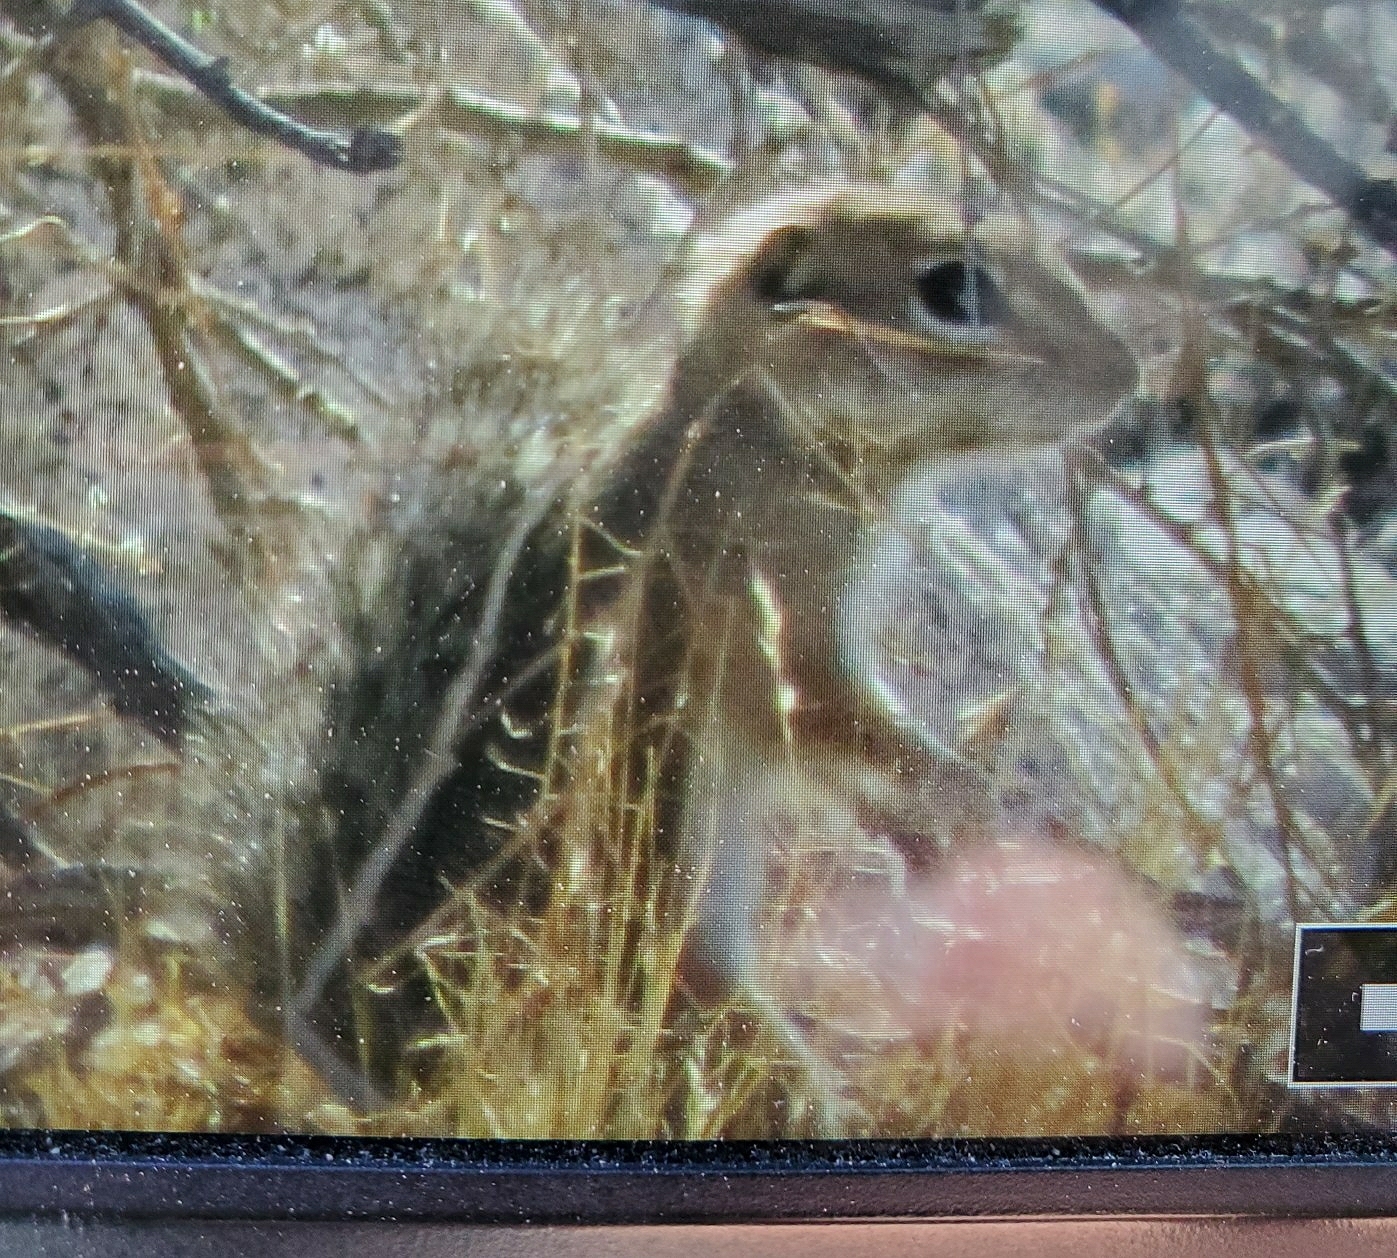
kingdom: Animalia
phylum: Chordata
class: Mammalia
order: Rodentia
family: Sciuridae
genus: Ammospermophilus
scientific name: Ammospermophilus harrisii
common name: Harris's antelope squirrel
